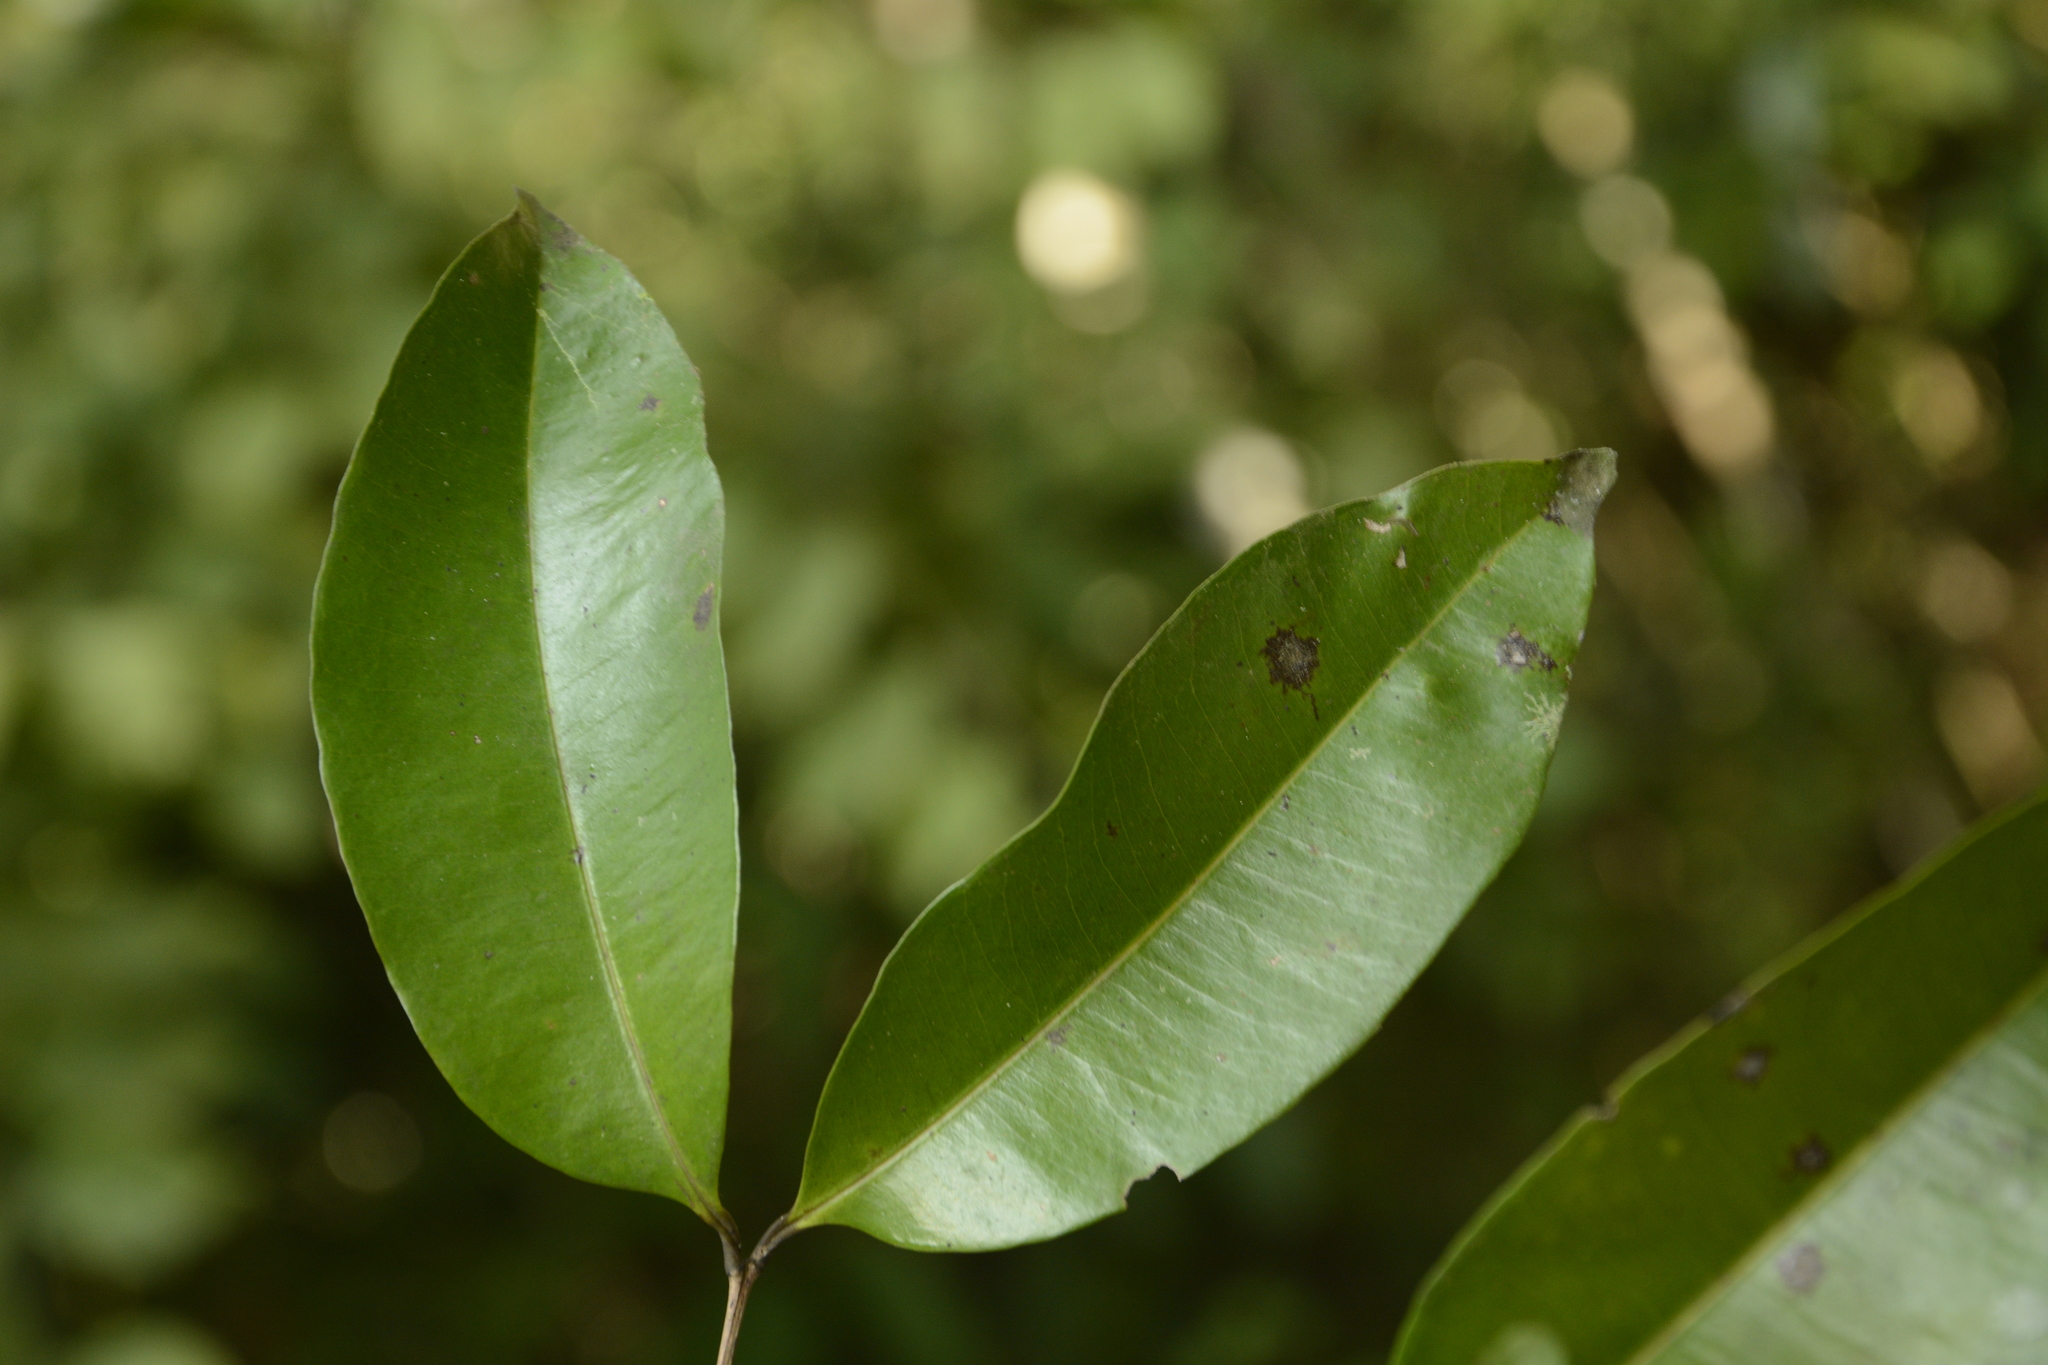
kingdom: Plantae
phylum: Tracheophyta
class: Magnoliopsida
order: Myrtales
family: Myrtaceae
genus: Syzygium
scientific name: Syzygium lanceolatum
